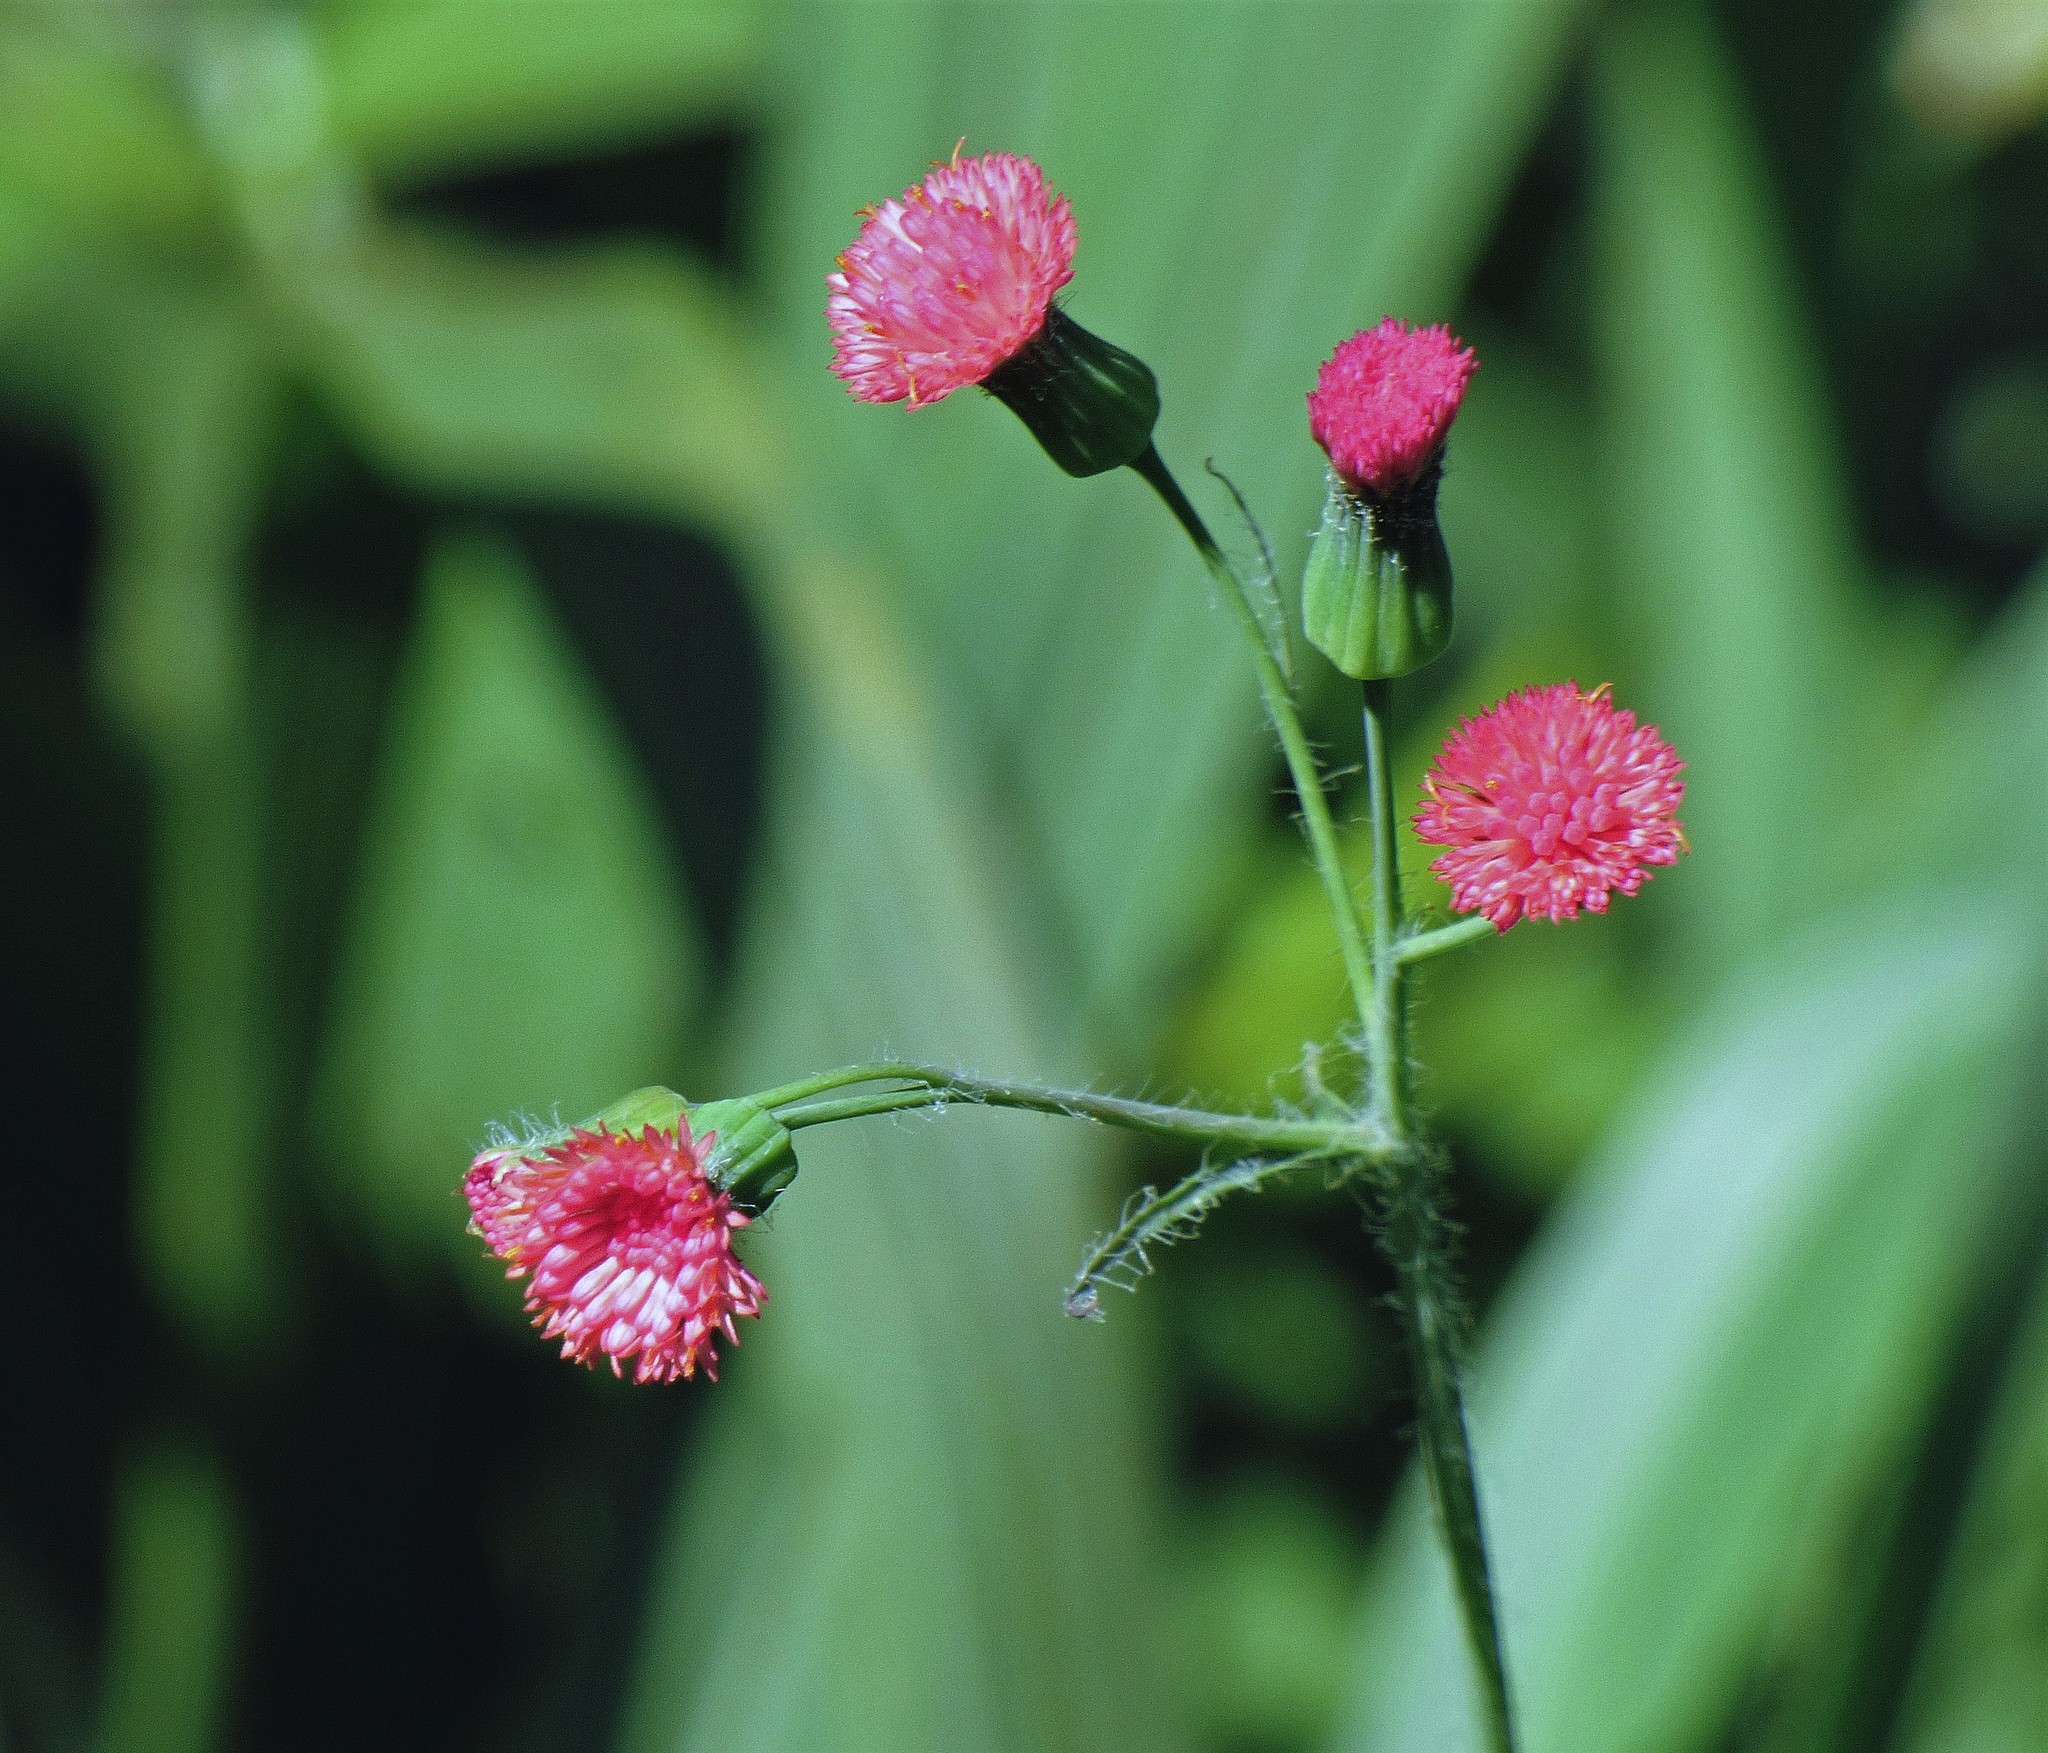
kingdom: Plantae
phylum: Tracheophyta
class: Magnoliopsida
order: Asterales
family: Asteraceae
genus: Emilia
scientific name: Emilia fosbergii
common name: Florida tasselflower
